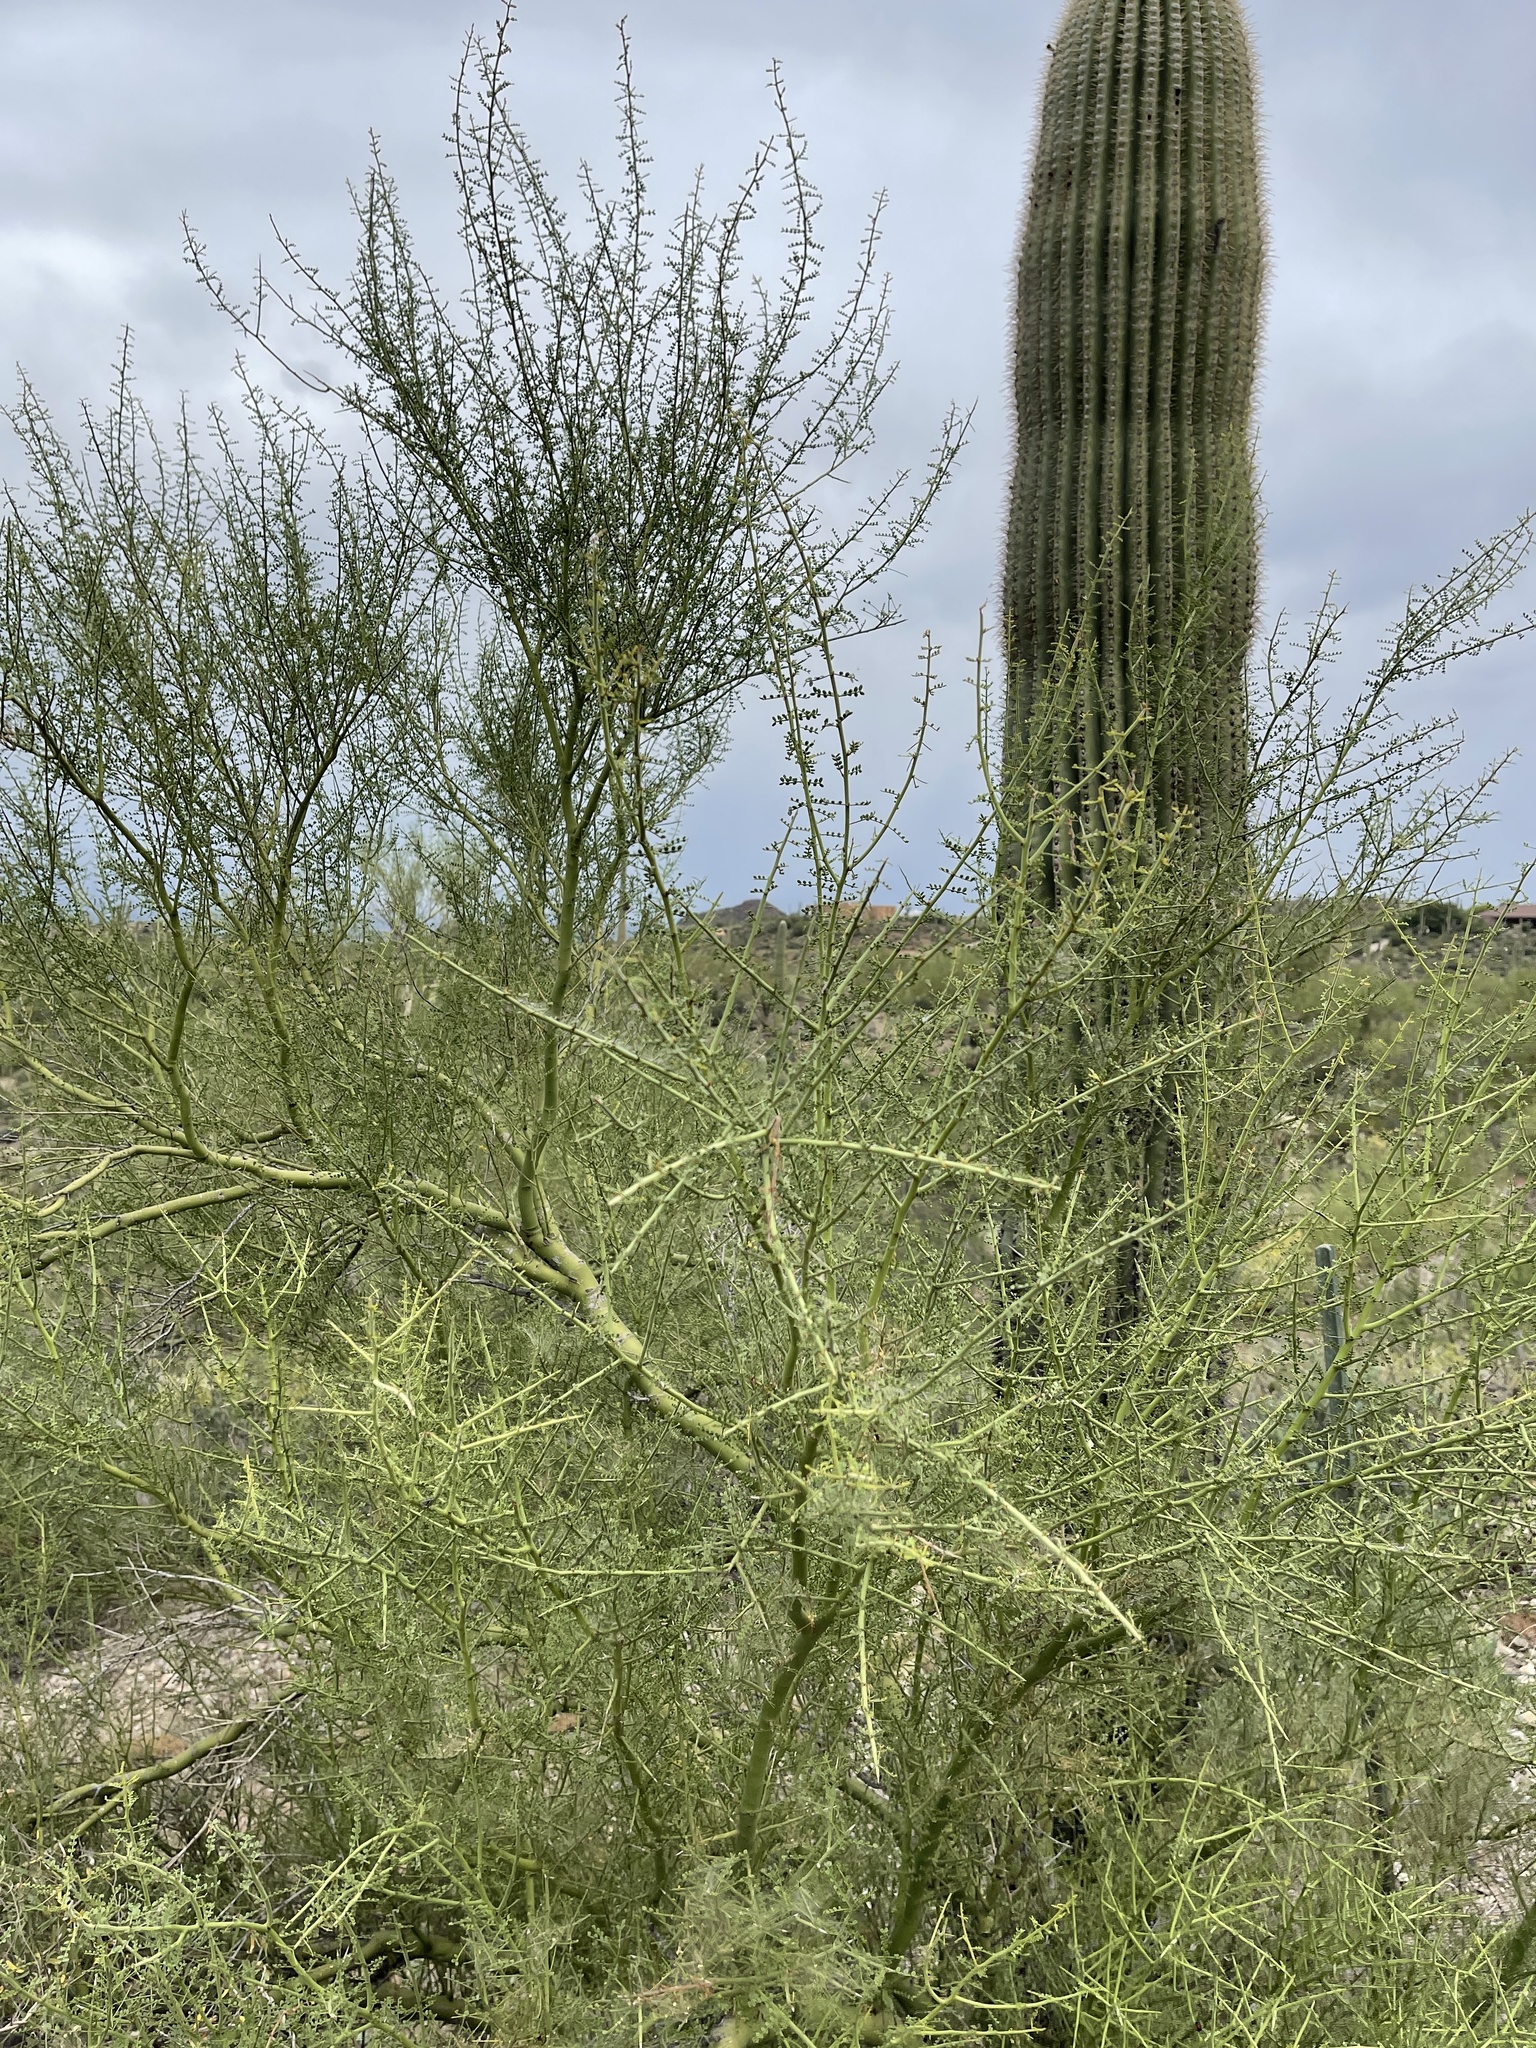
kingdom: Plantae
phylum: Tracheophyta
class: Magnoliopsida
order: Fabales
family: Fabaceae
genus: Parkinsonia
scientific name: Parkinsonia microphylla
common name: Yellow paloverde
